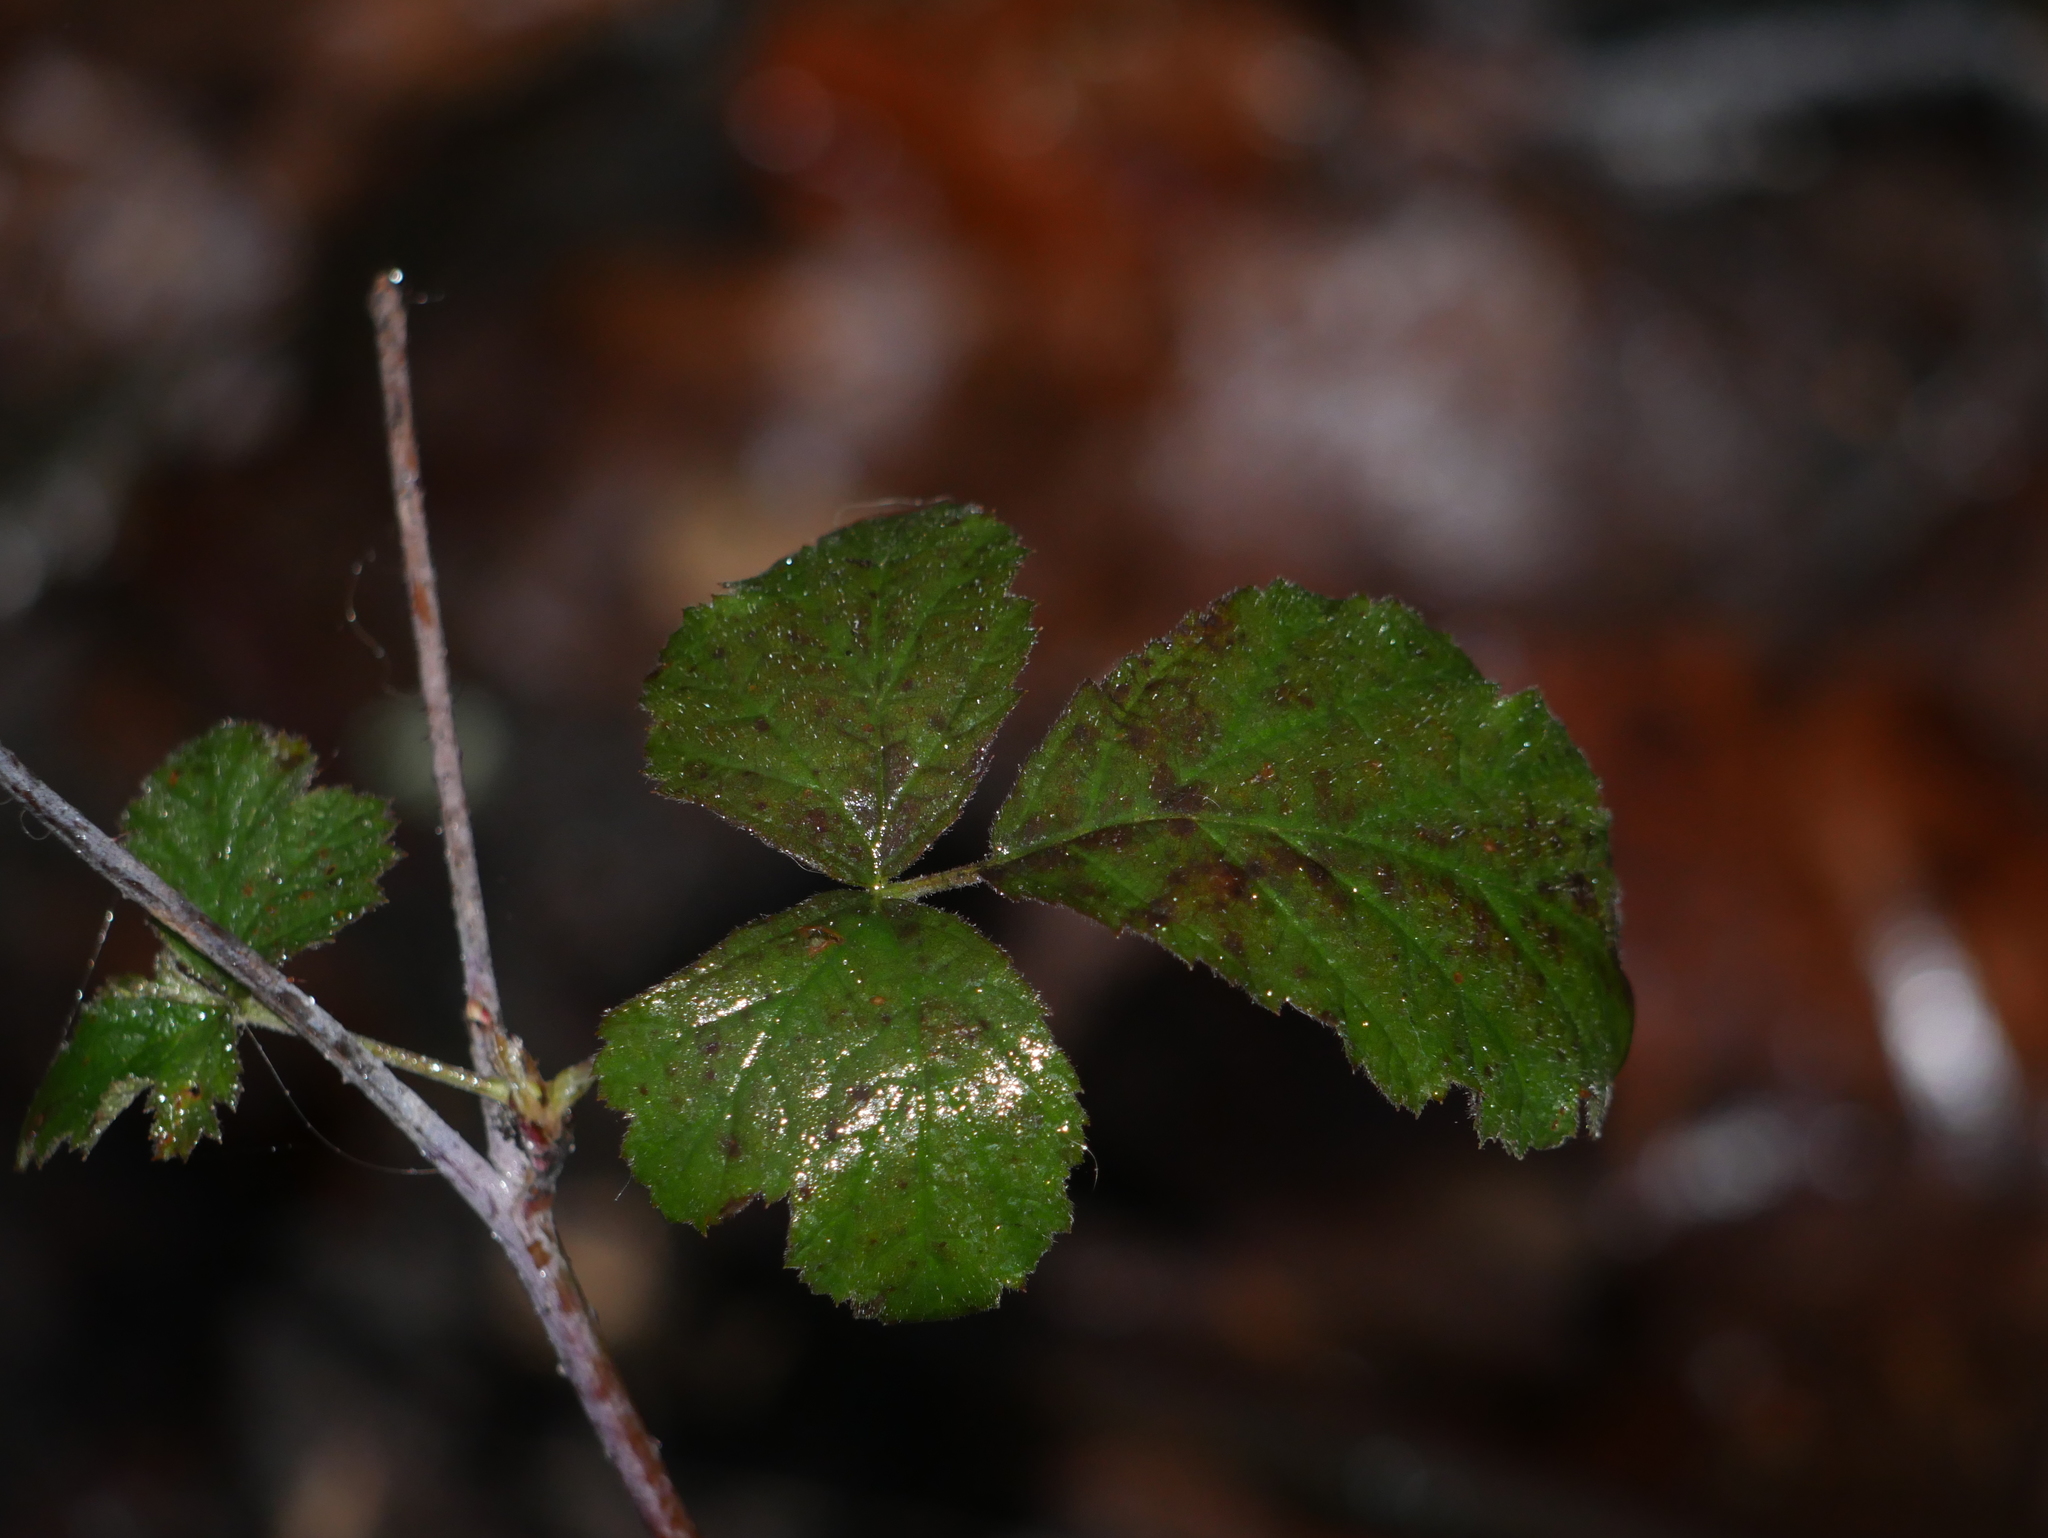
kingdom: Plantae
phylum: Tracheophyta
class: Magnoliopsida
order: Rosales
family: Rosaceae
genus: Rubus
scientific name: Rubus caesius
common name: Dewberry
